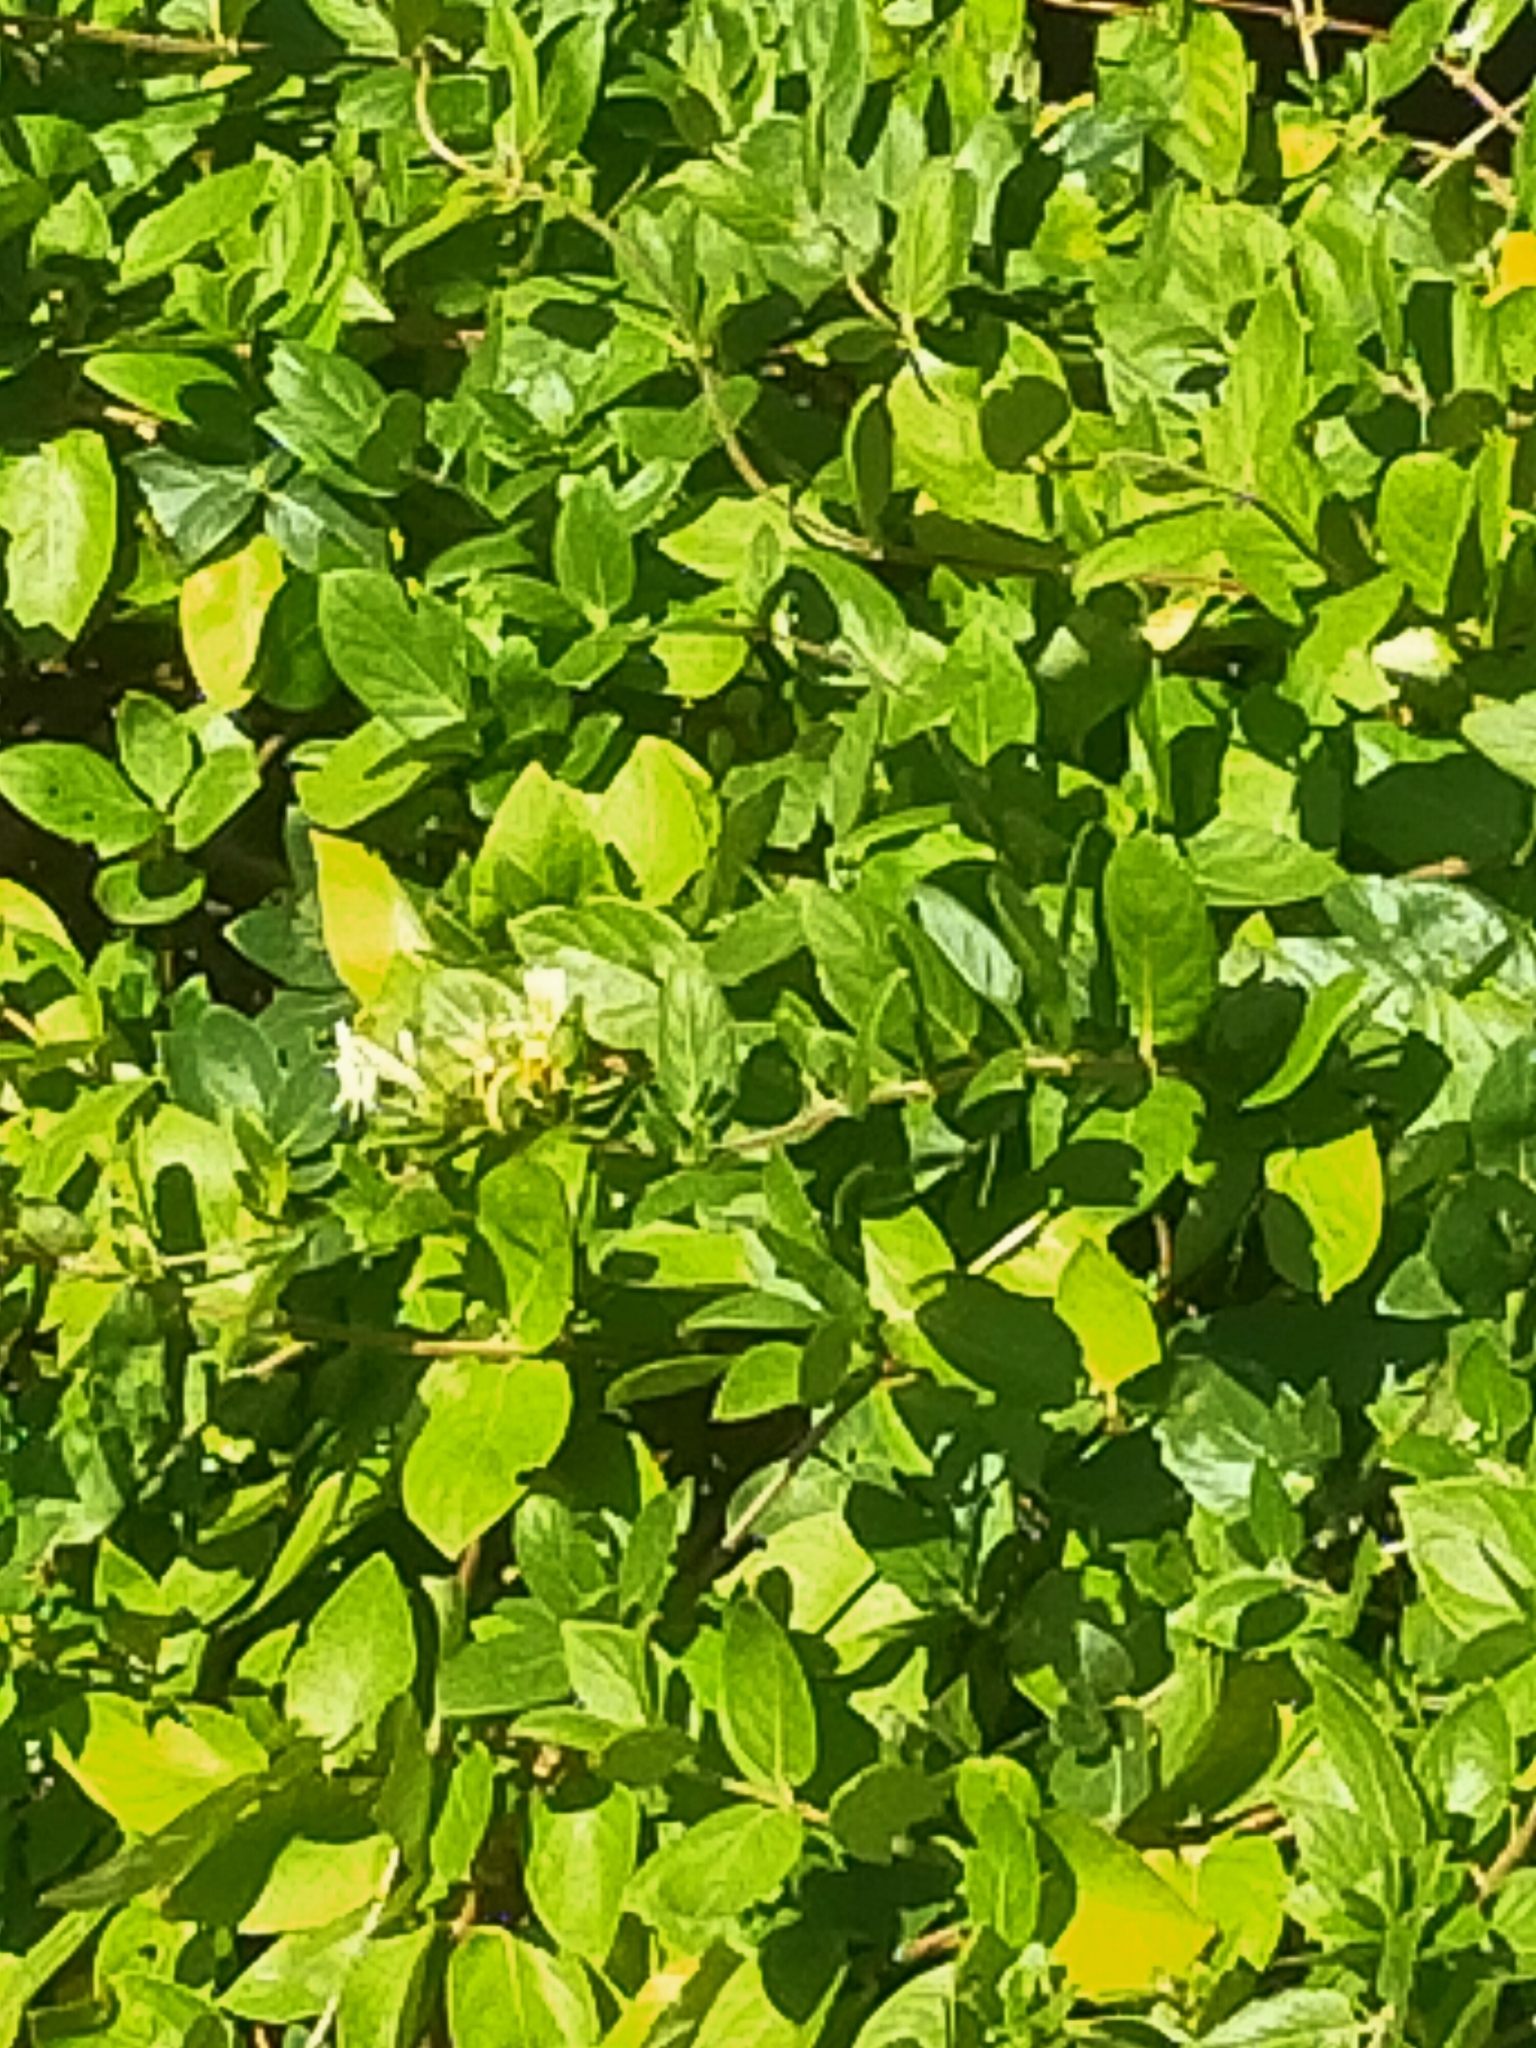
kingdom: Plantae
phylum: Tracheophyta
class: Magnoliopsida
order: Dipsacales
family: Caprifoliaceae
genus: Lonicera
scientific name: Lonicera japonica
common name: Japanese honeysuckle
